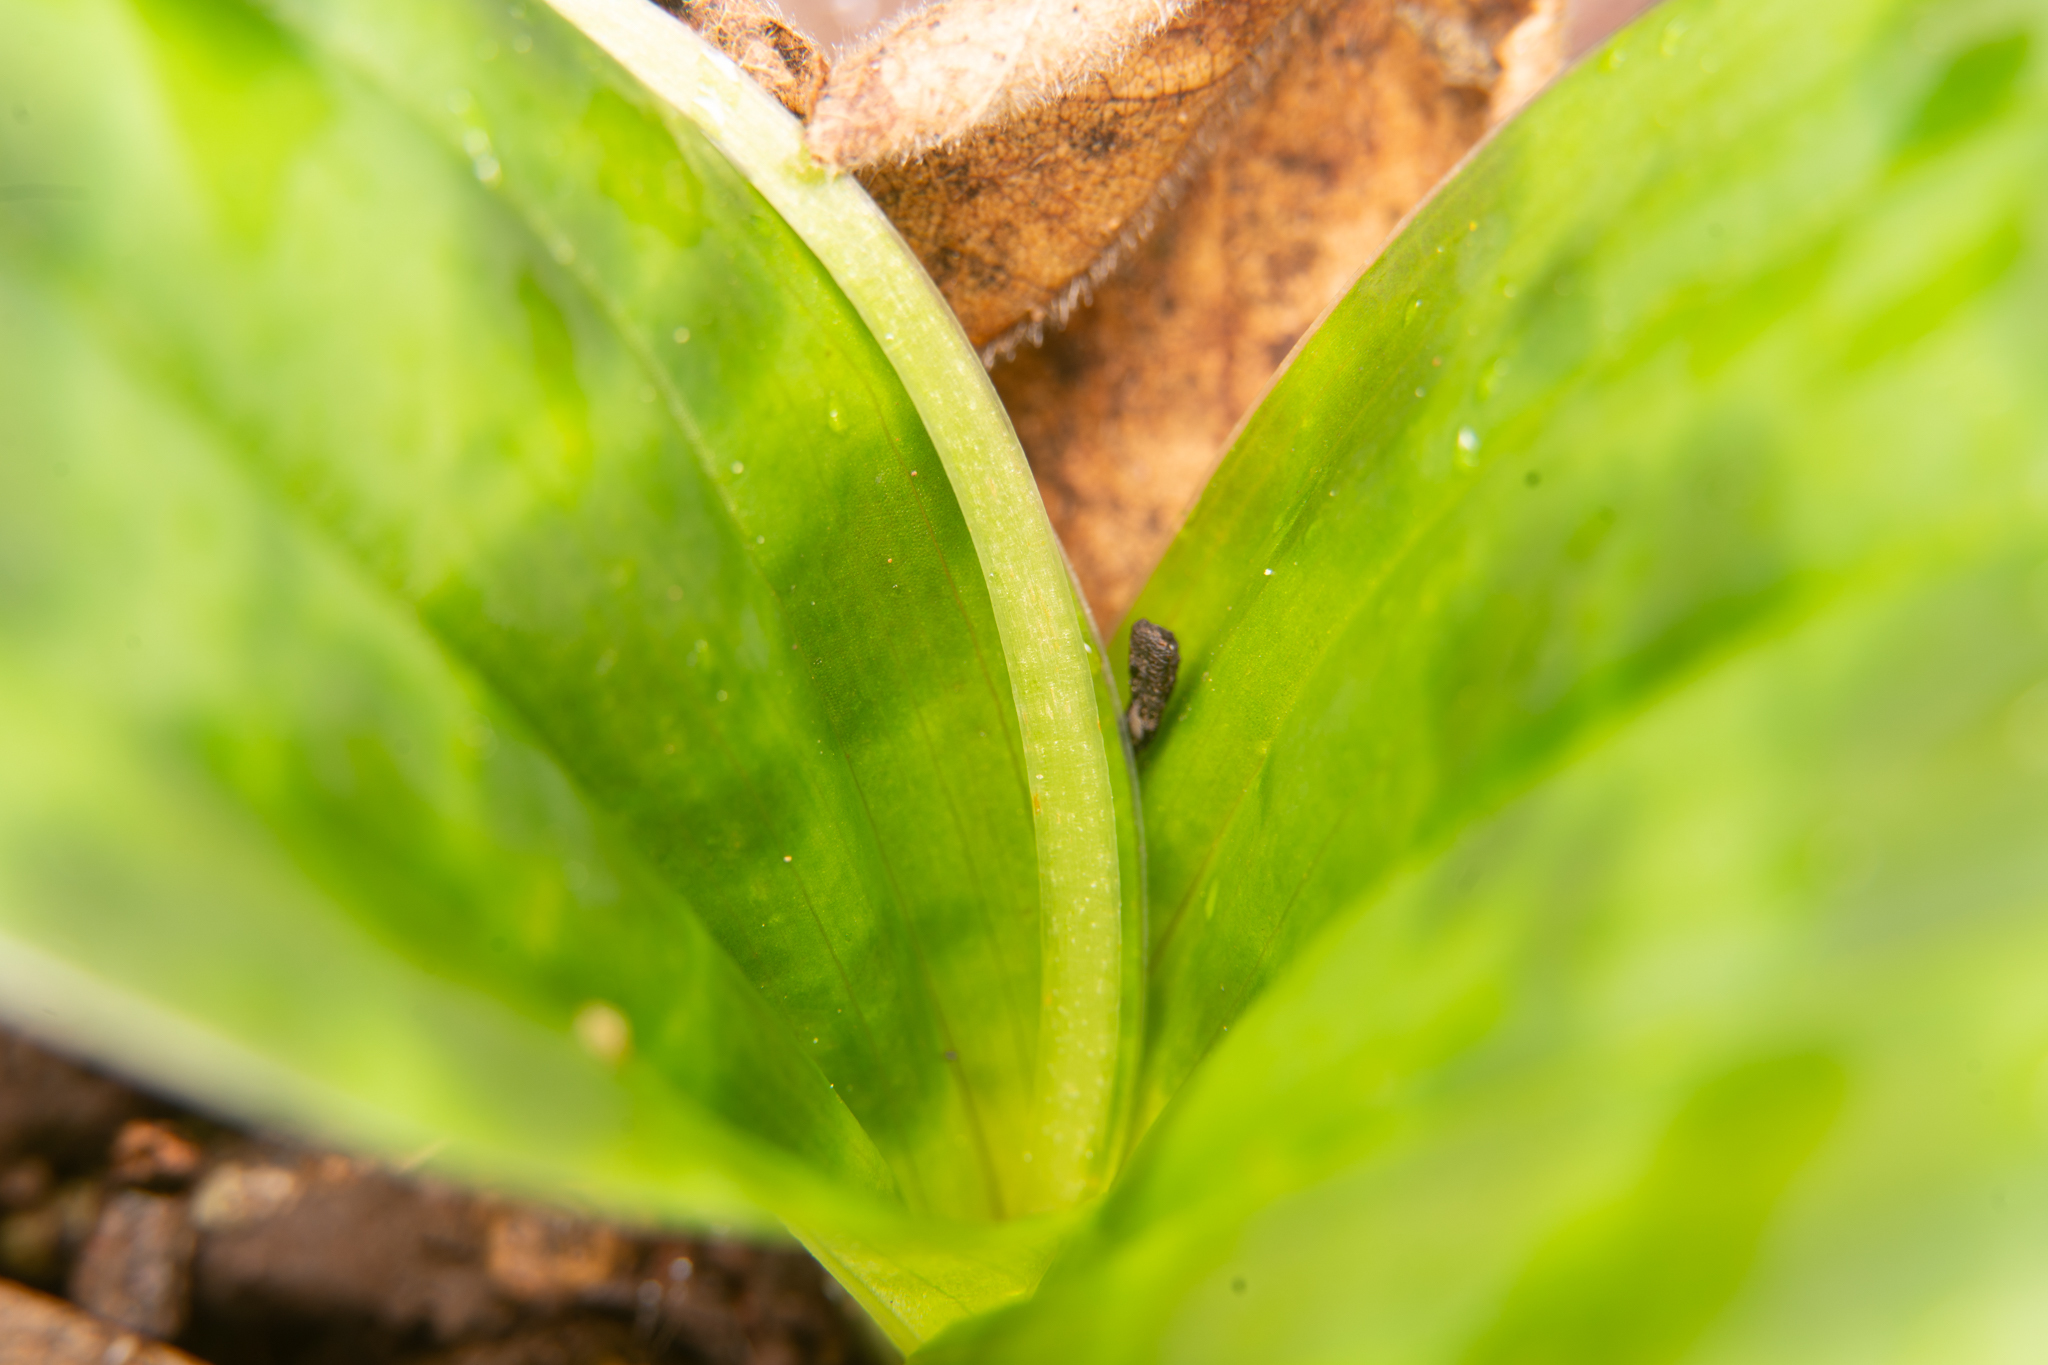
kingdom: Plantae
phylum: Tracheophyta
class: Liliopsida
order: Liliales
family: Liliaceae
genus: Scoliopus
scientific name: Scoliopus bigelovii
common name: Foetid adder's-tongue
